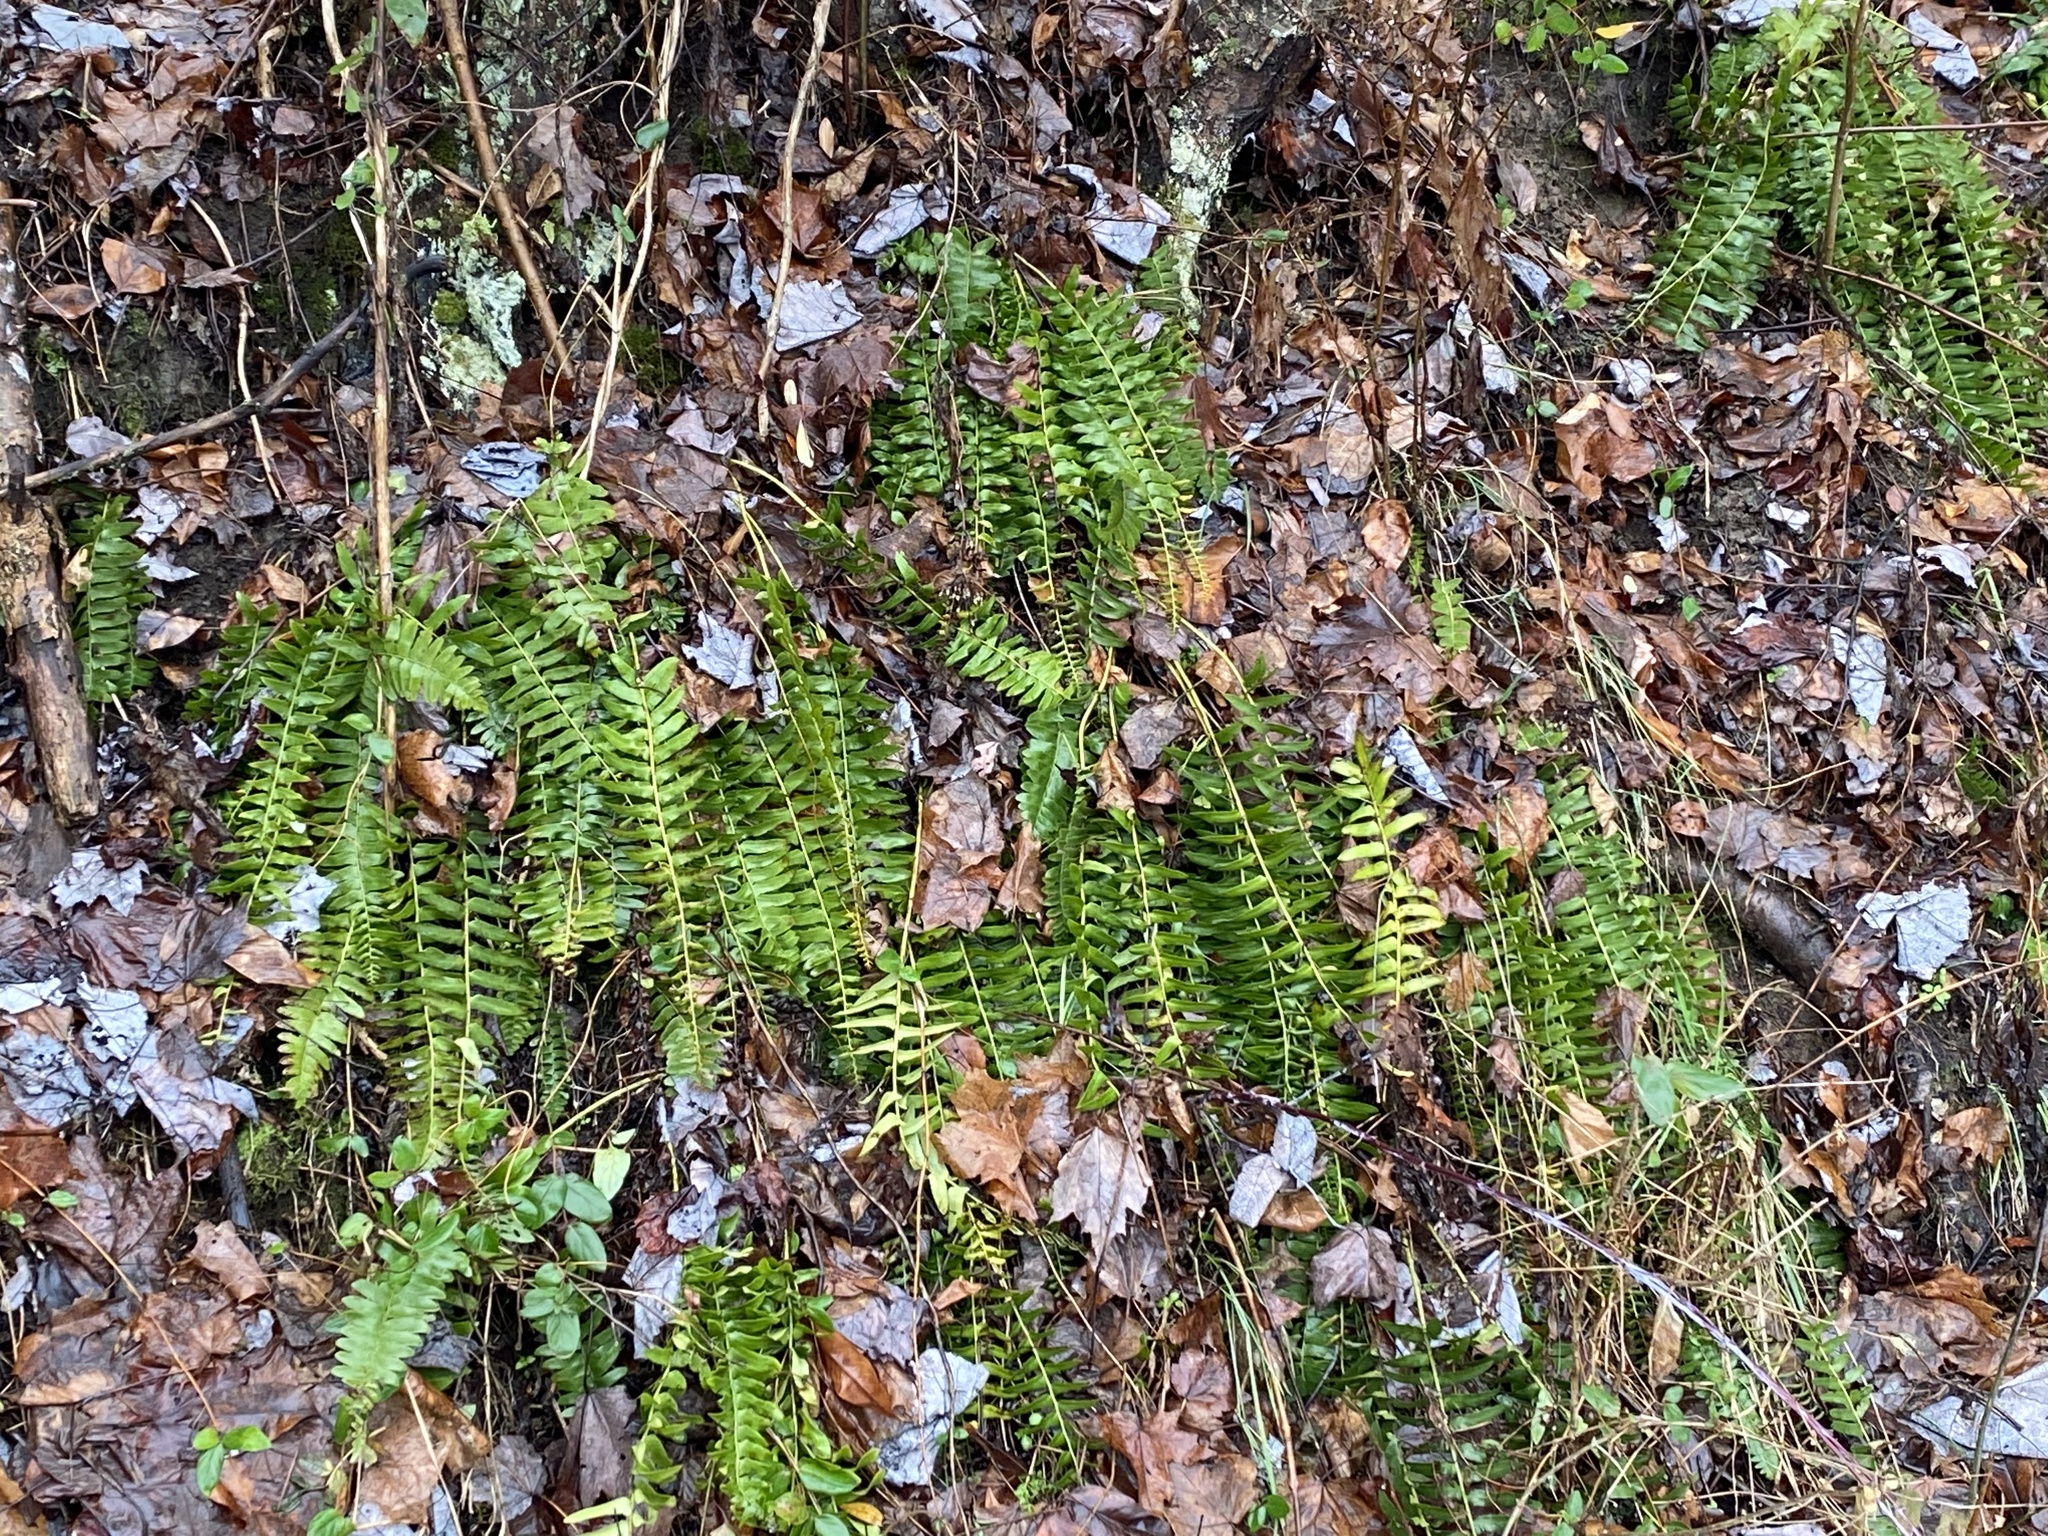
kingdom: Plantae
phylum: Tracheophyta
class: Polypodiopsida
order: Polypodiales
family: Dryopteridaceae
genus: Polystichum
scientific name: Polystichum acrostichoides
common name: Christmas fern
